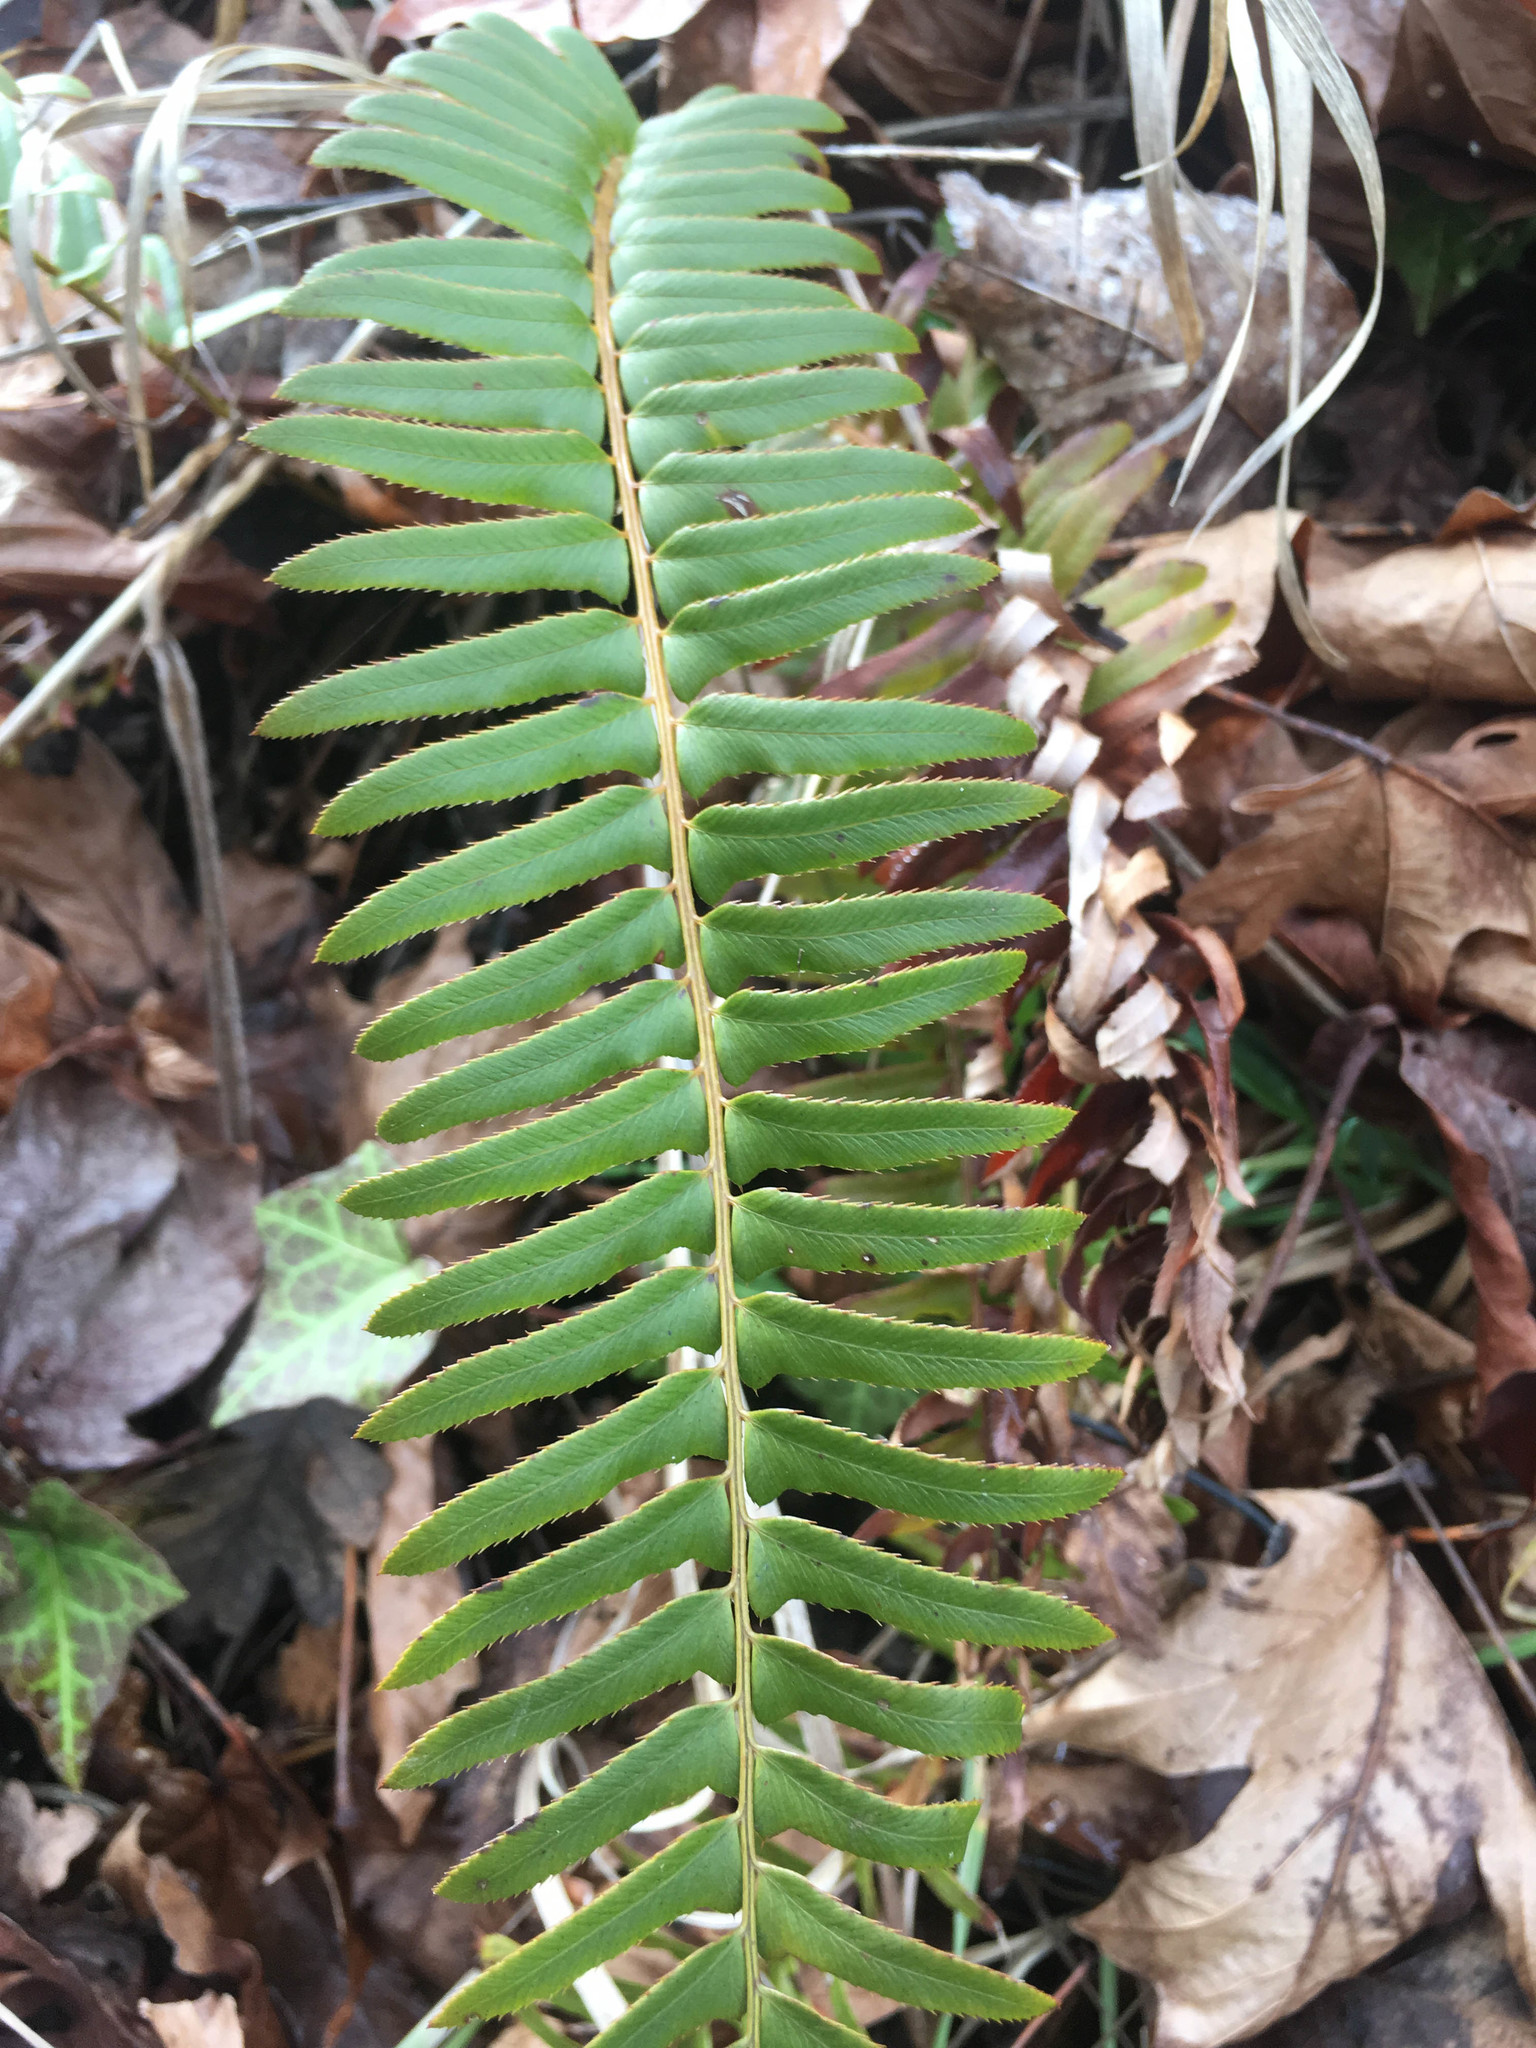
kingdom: Plantae
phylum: Tracheophyta
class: Polypodiopsida
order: Polypodiales
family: Dryopteridaceae
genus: Polystichum
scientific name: Polystichum munitum
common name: Western sword-fern
